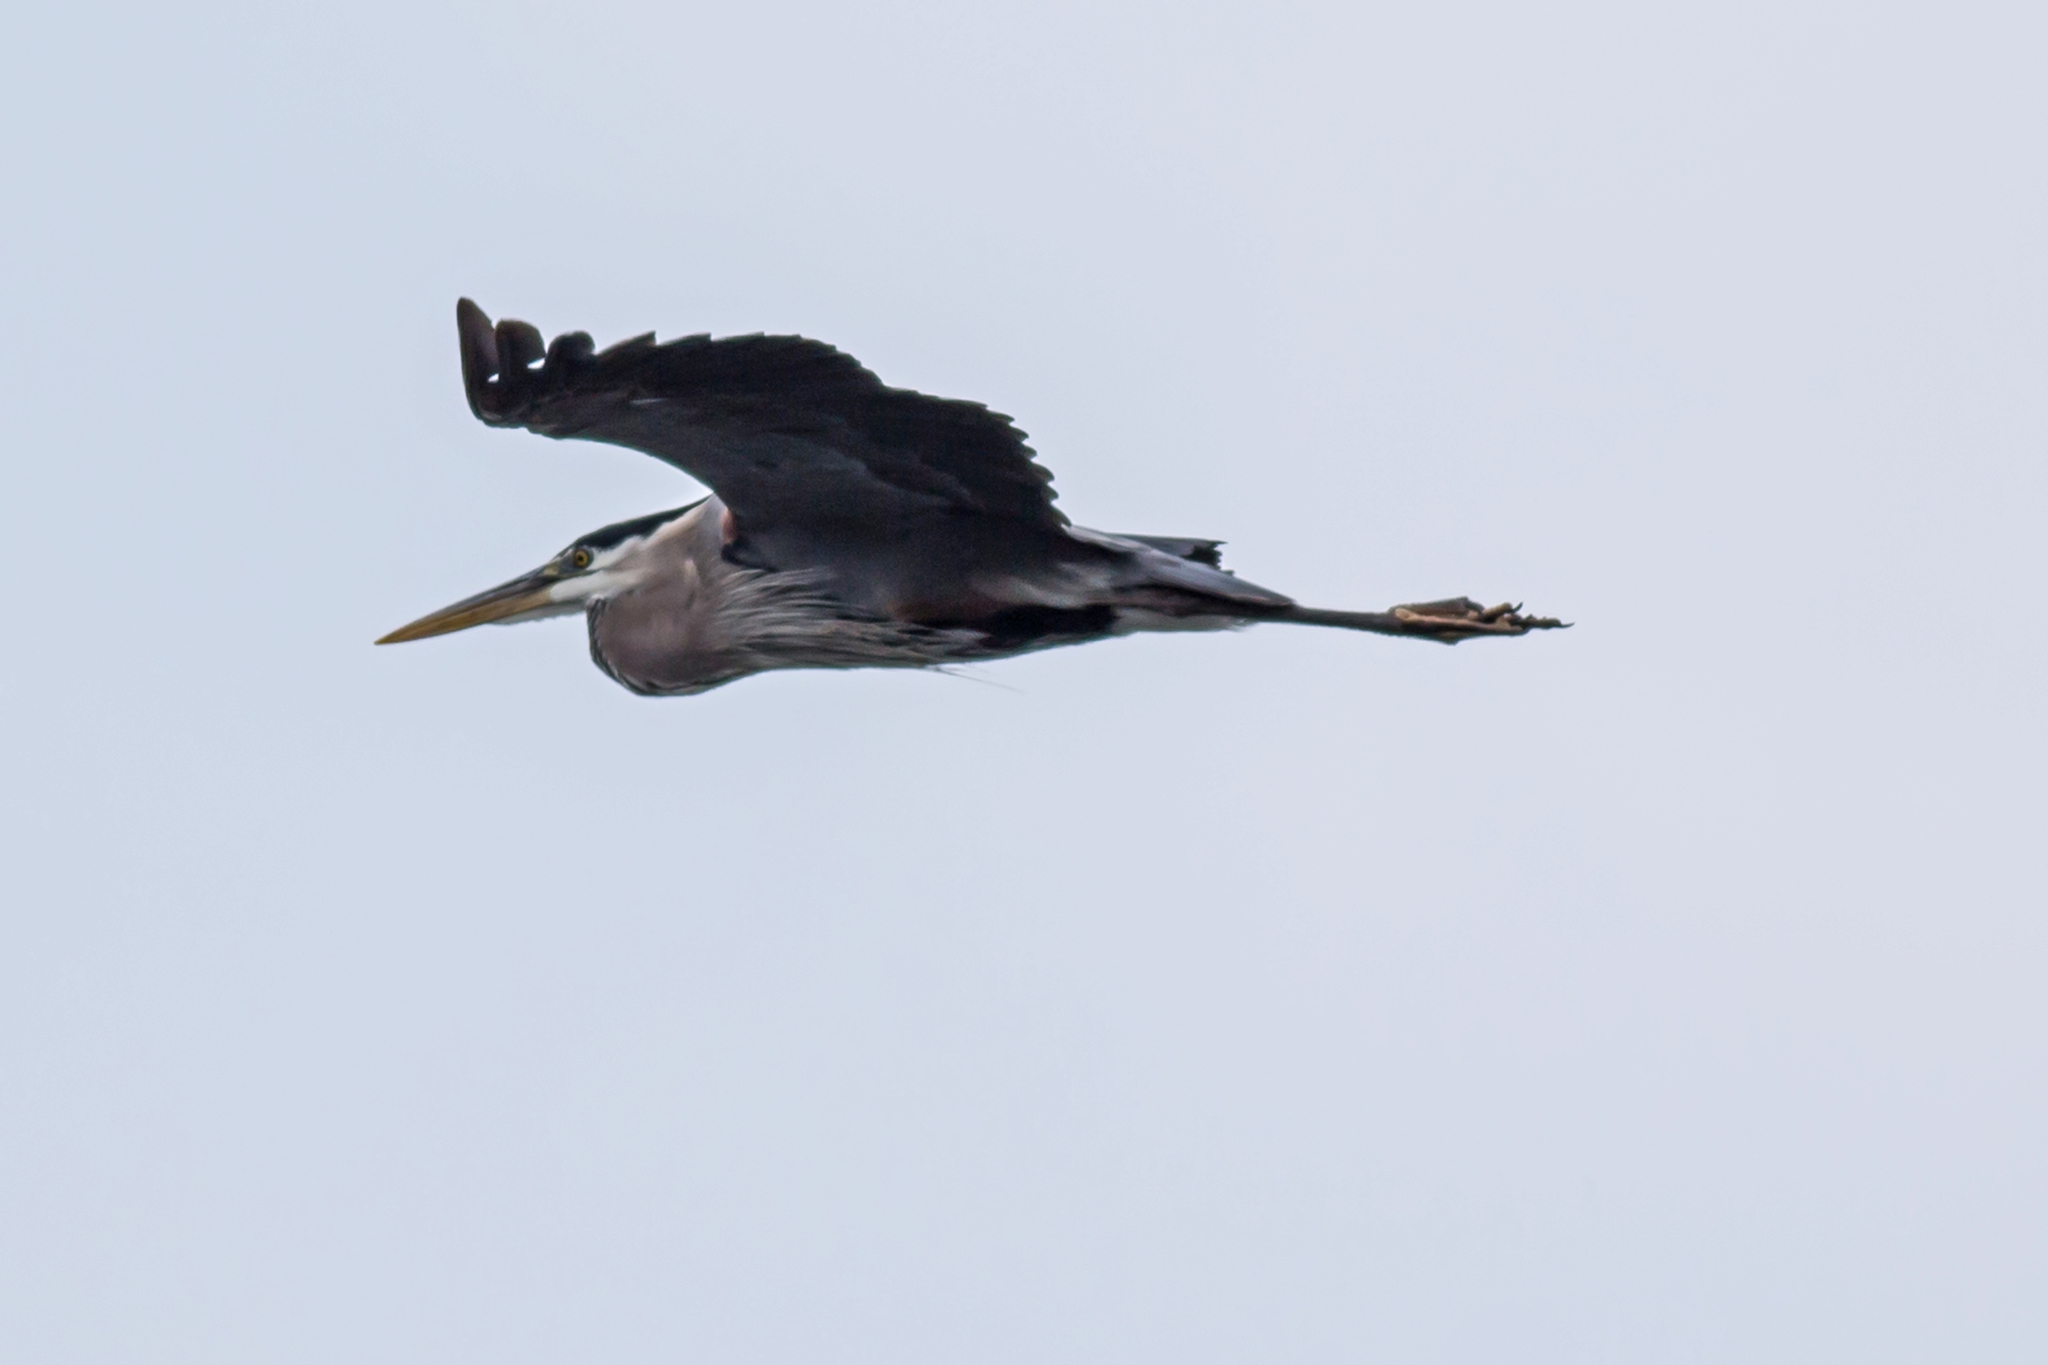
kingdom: Animalia
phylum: Chordata
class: Aves
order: Pelecaniformes
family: Ardeidae
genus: Ardea
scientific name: Ardea herodias
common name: Great blue heron
